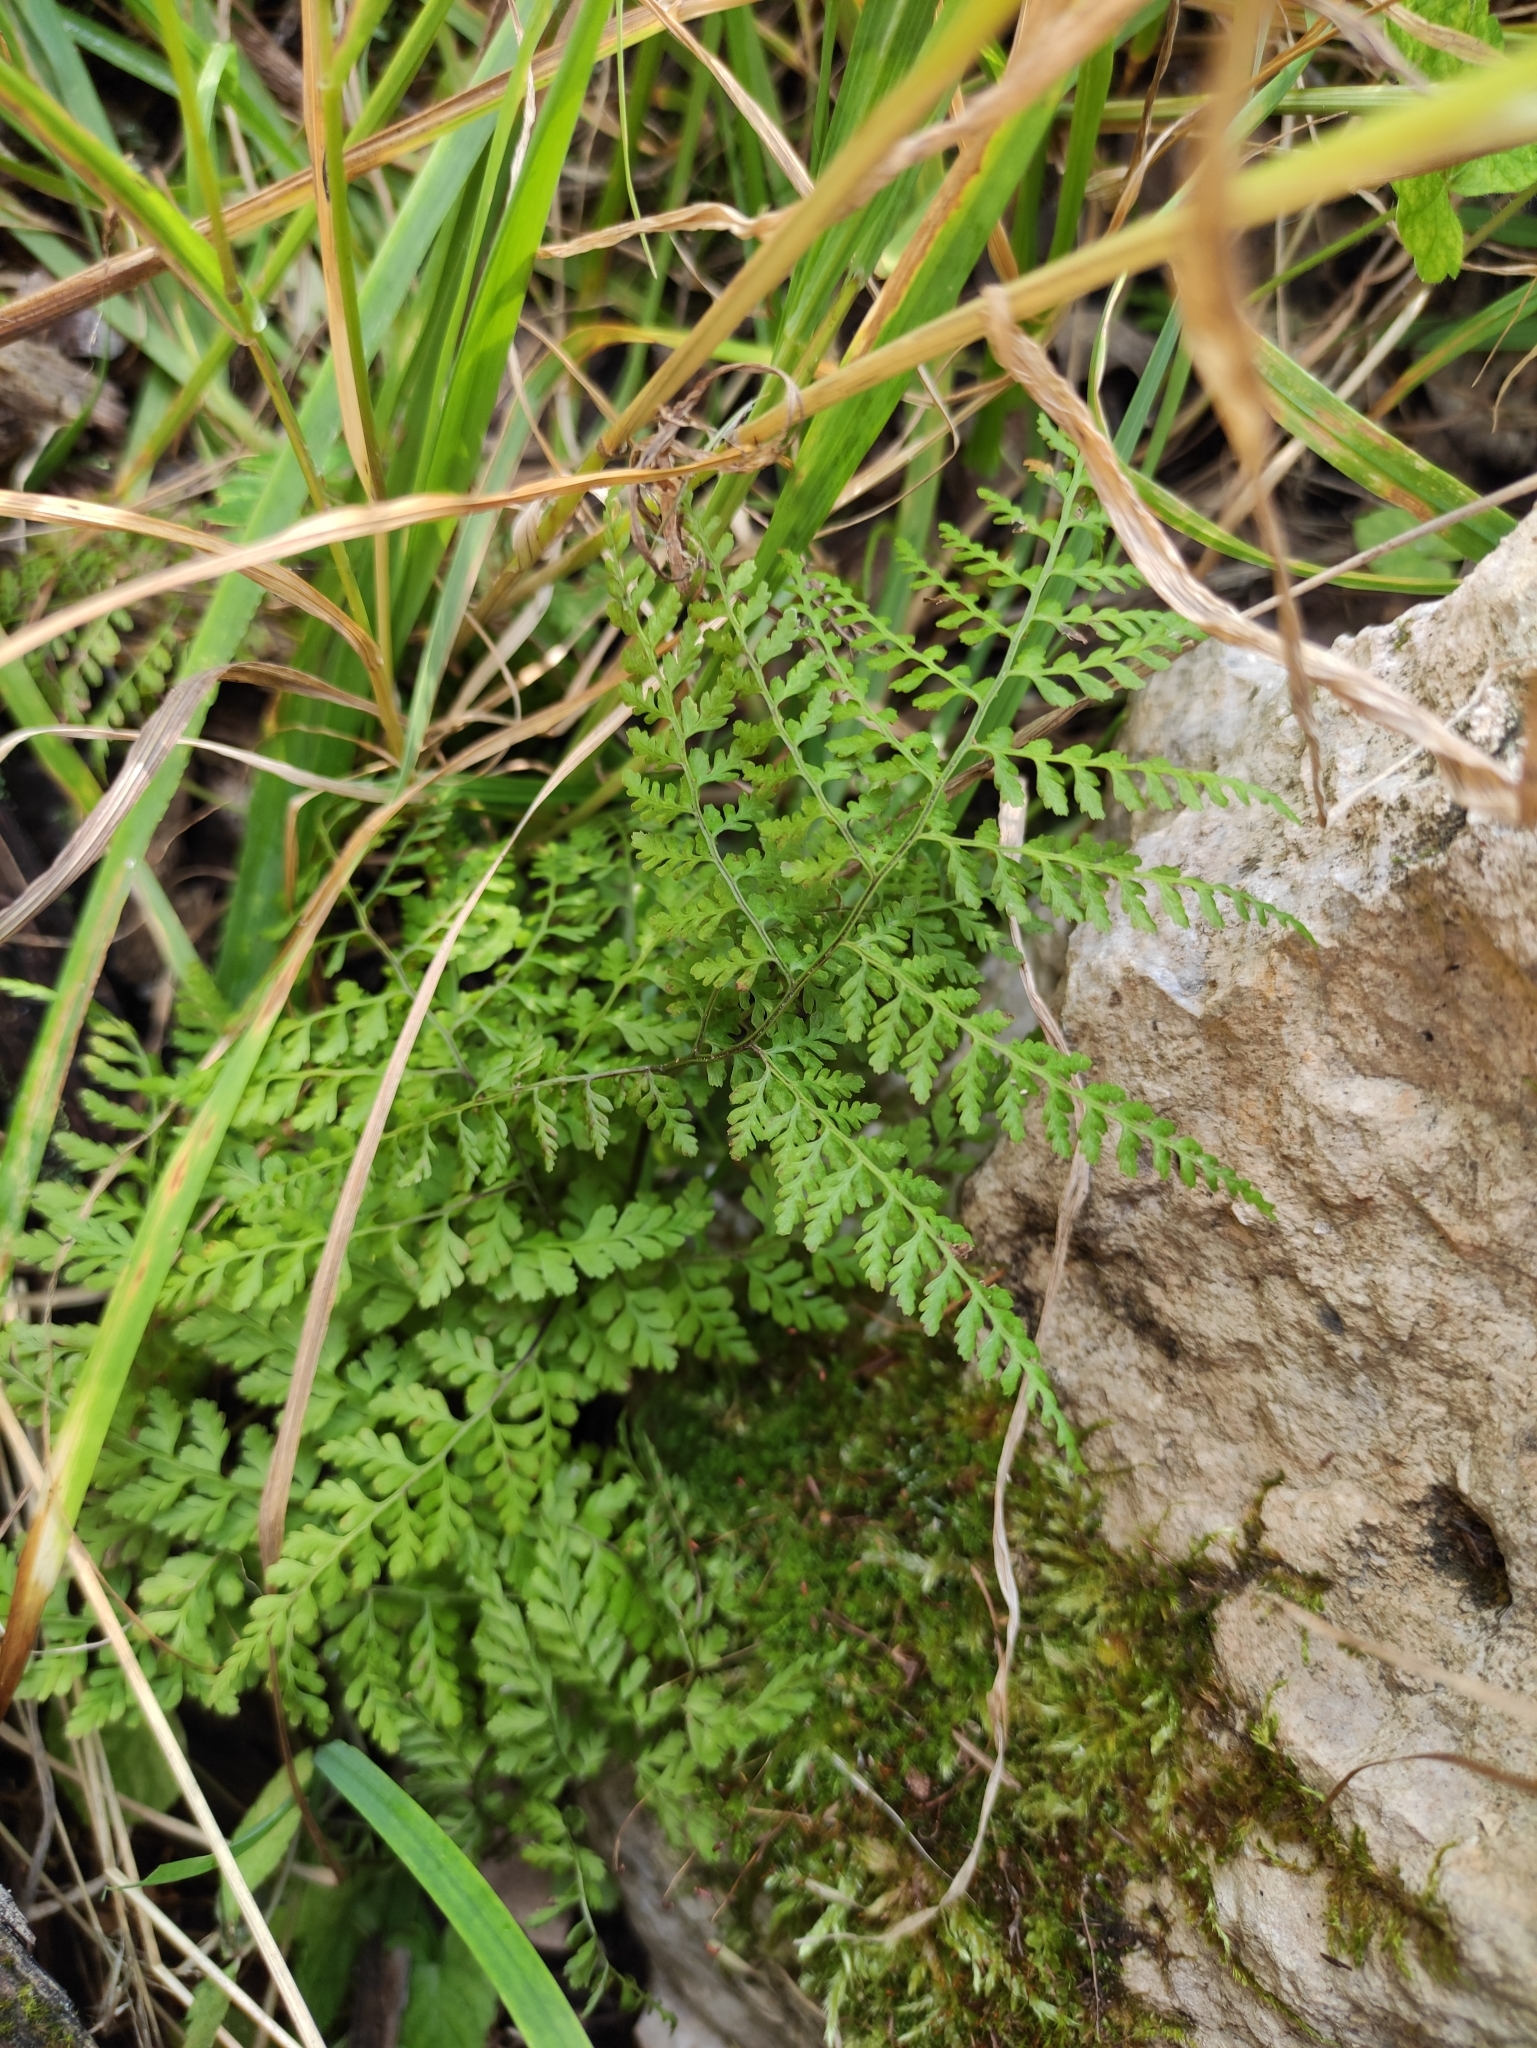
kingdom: Plantae
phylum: Tracheophyta
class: Polypodiopsida
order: Polypodiales
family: Cystopteridaceae
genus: Cystopteris
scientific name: Cystopteris sudetica
